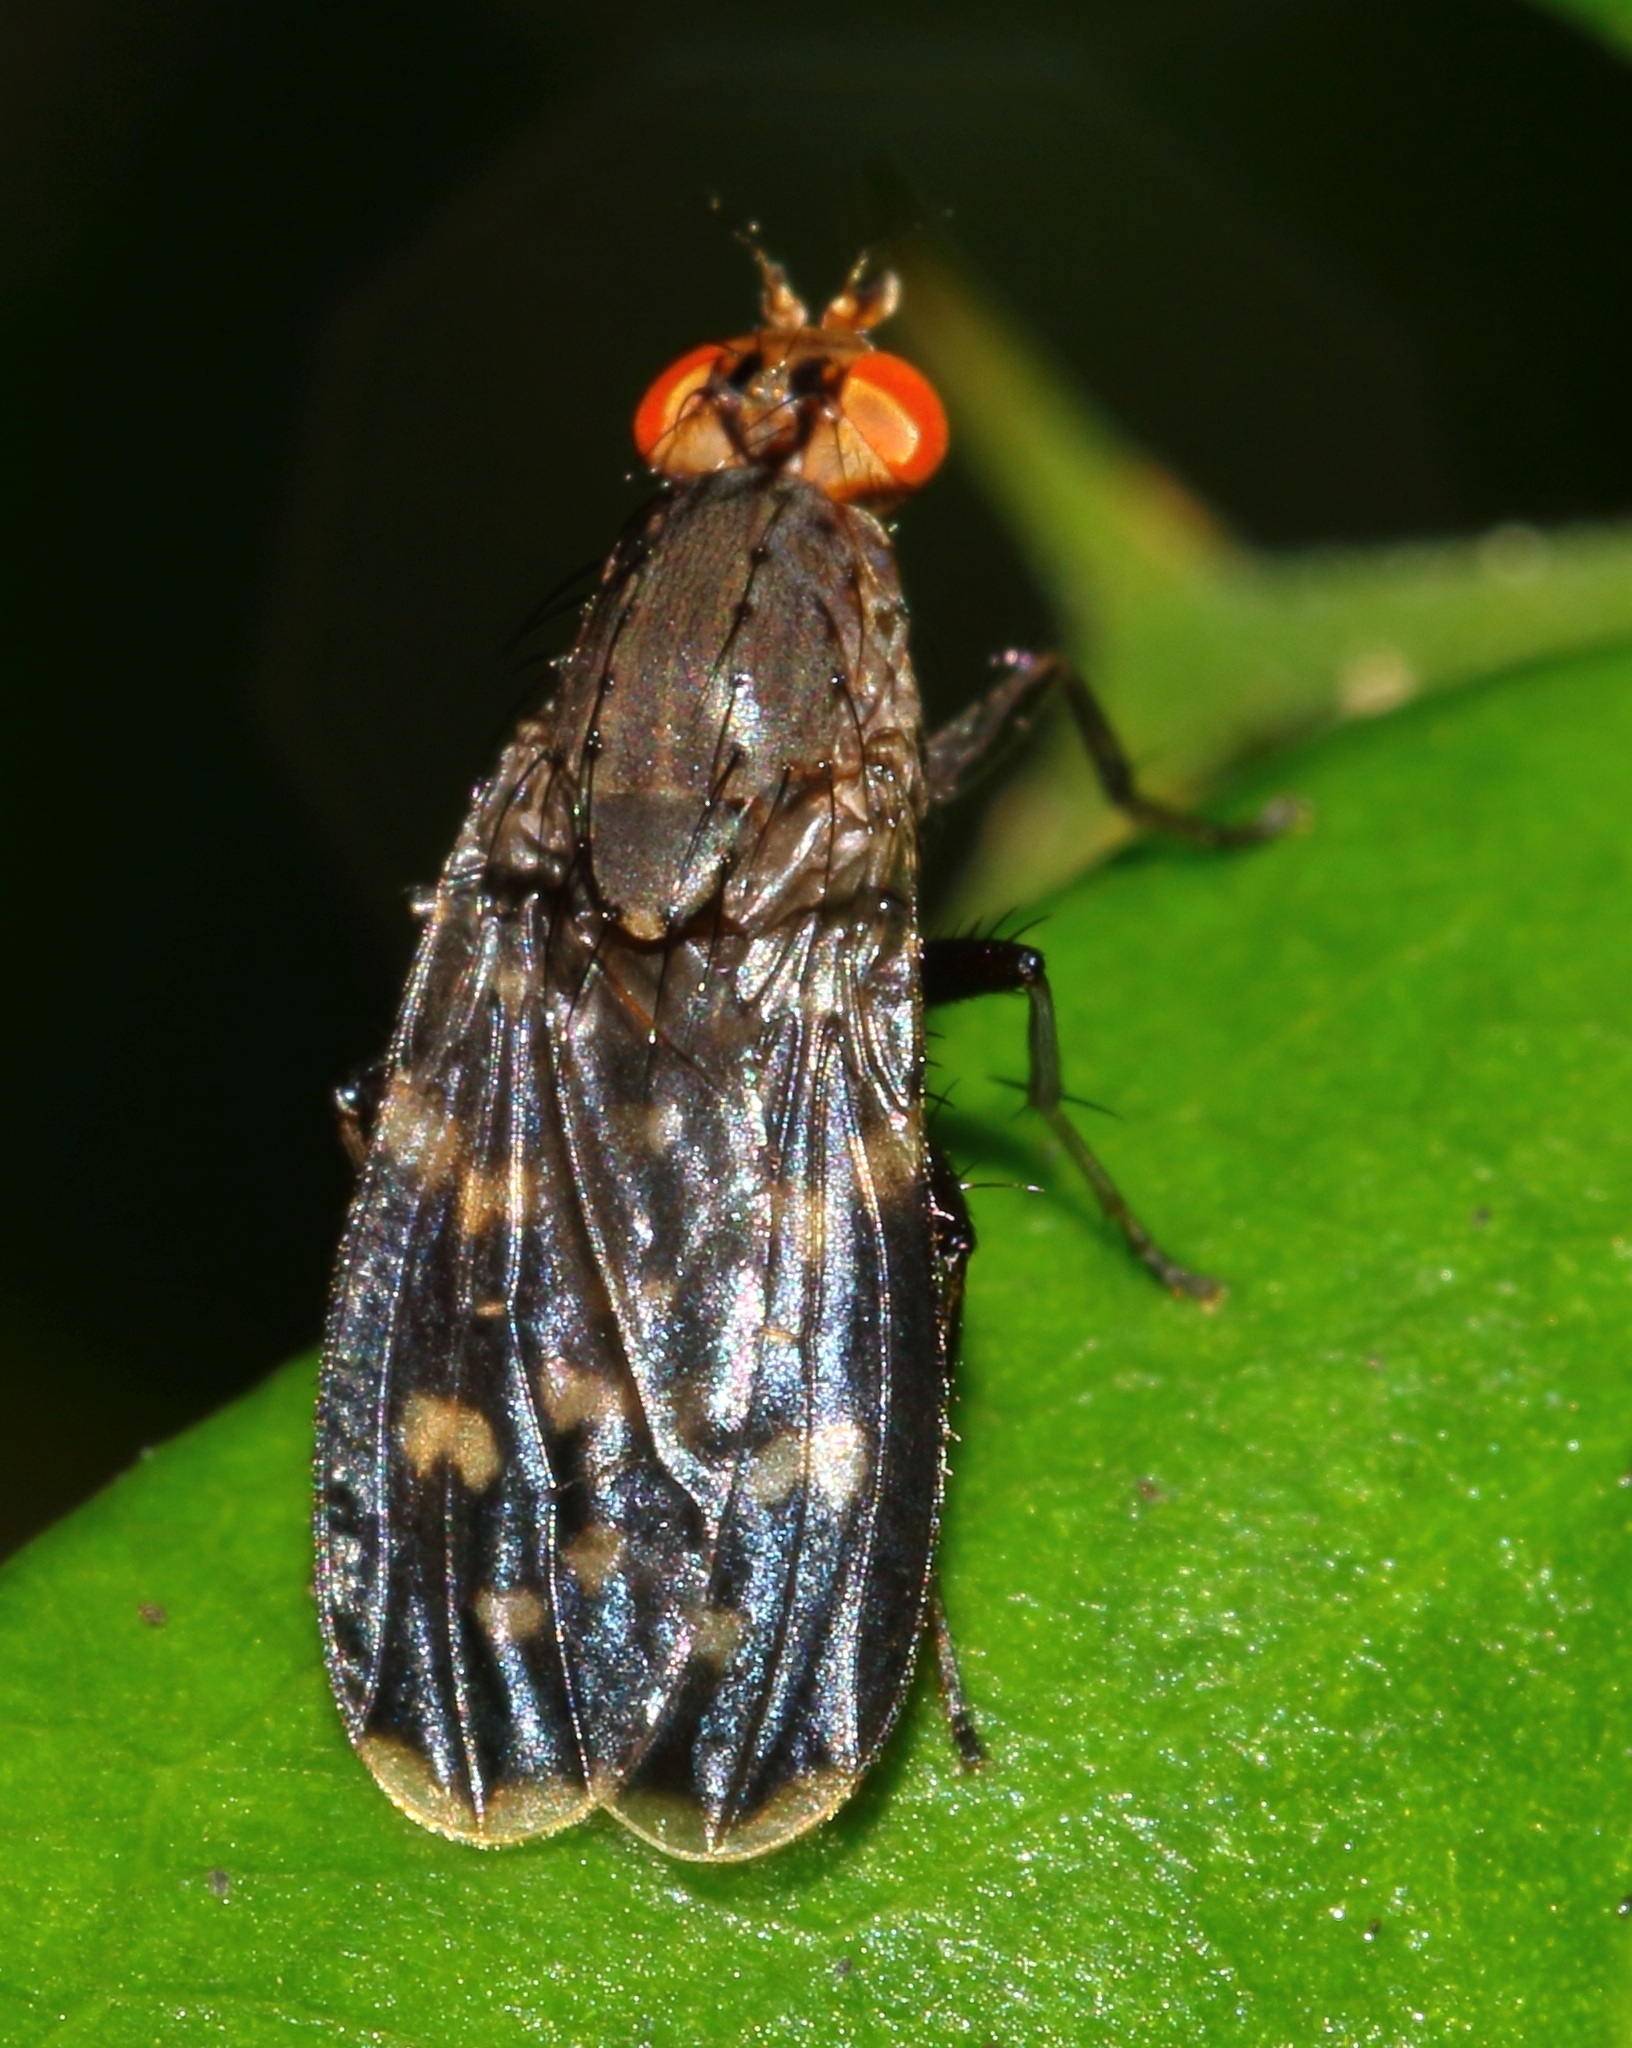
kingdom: Animalia
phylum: Arthropoda
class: Insecta
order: Diptera
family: Heleomyzidae
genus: Suillia
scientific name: Suillia picta
